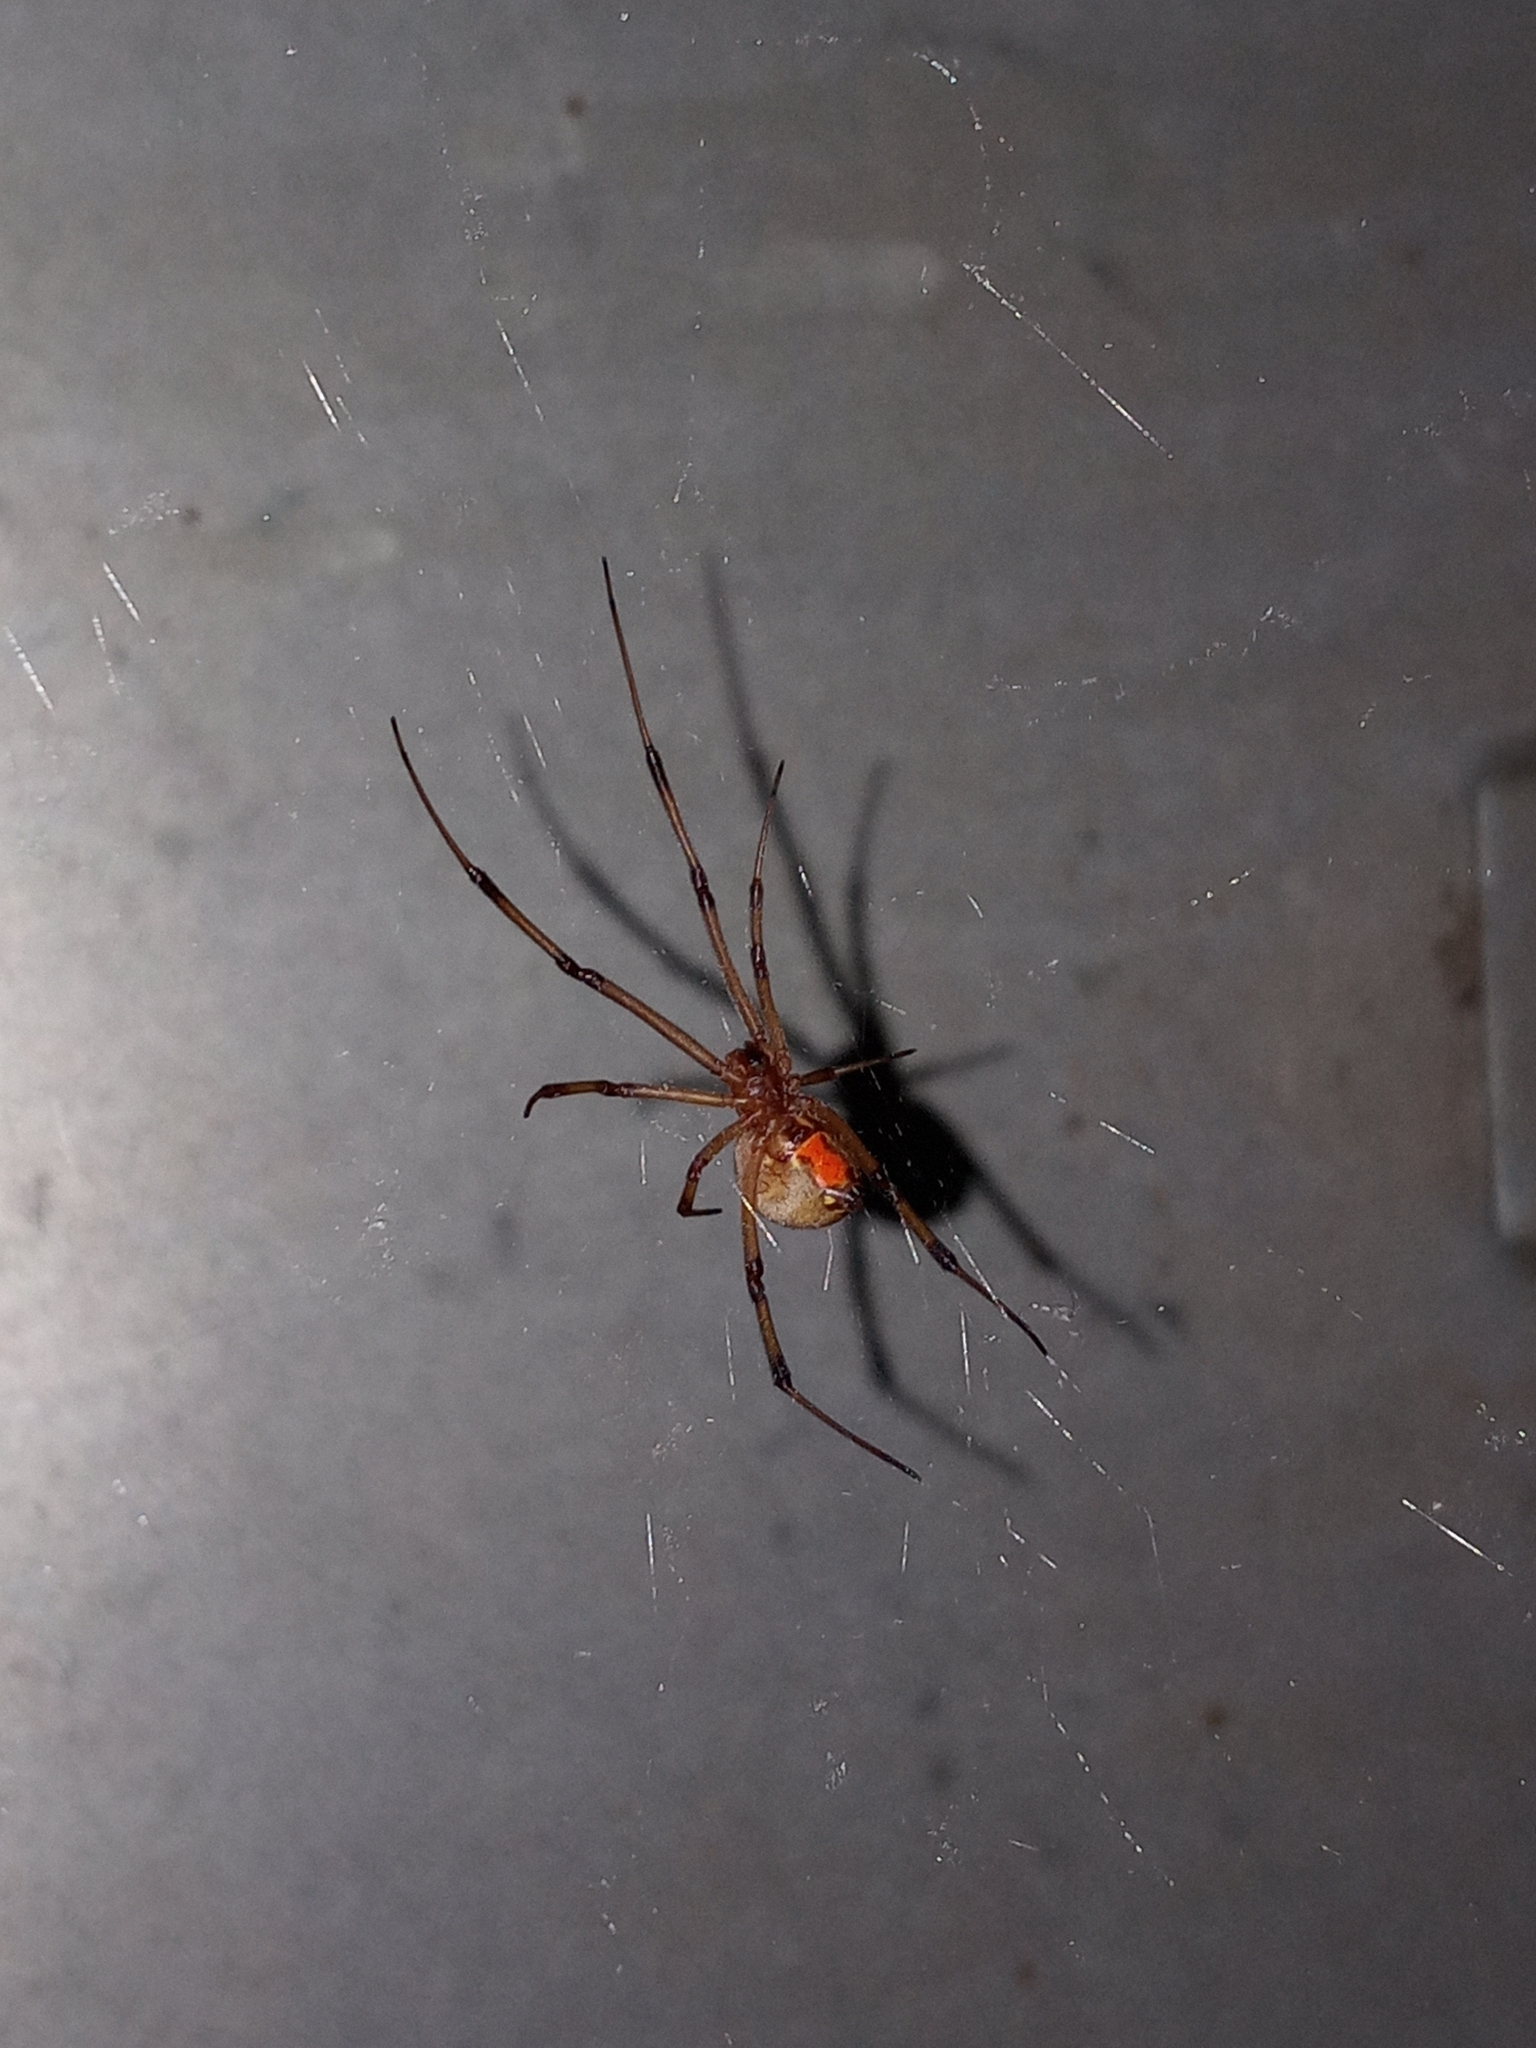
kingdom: Animalia
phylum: Arthropoda
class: Arachnida
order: Araneae
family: Theridiidae
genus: Latrodectus
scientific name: Latrodectus geometricus
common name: Brown widow spider
